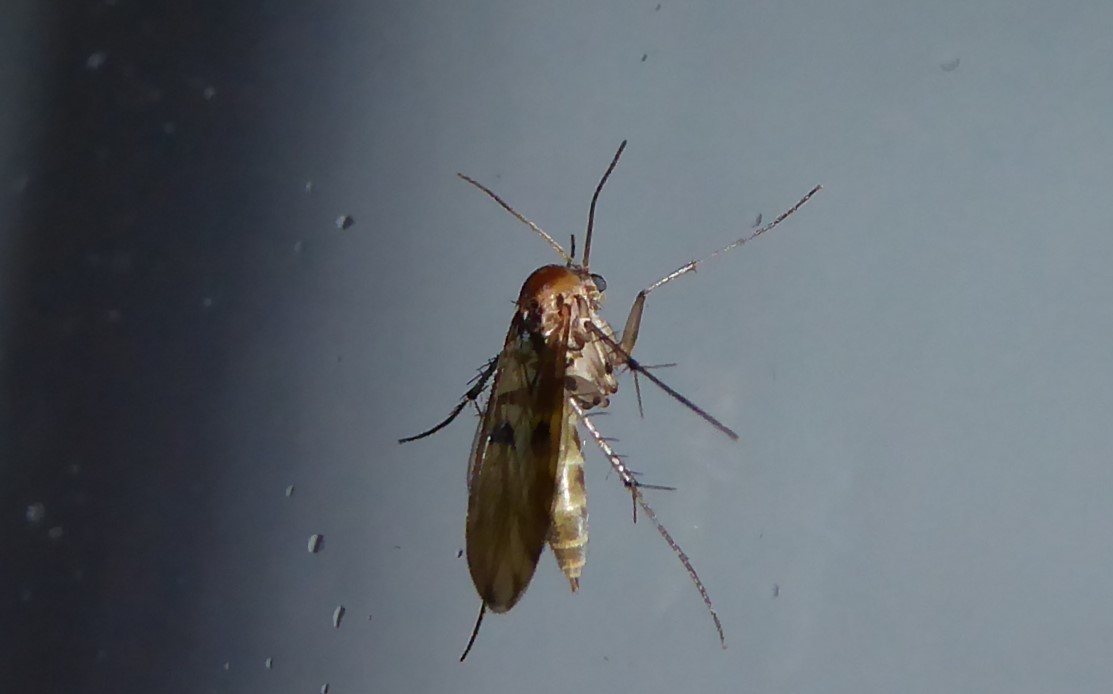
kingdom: Animalia
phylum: Arthropoda
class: Insecta
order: Diptera
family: Mycetophilidae
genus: Mycetophila
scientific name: Mycetophila marginepunctata
